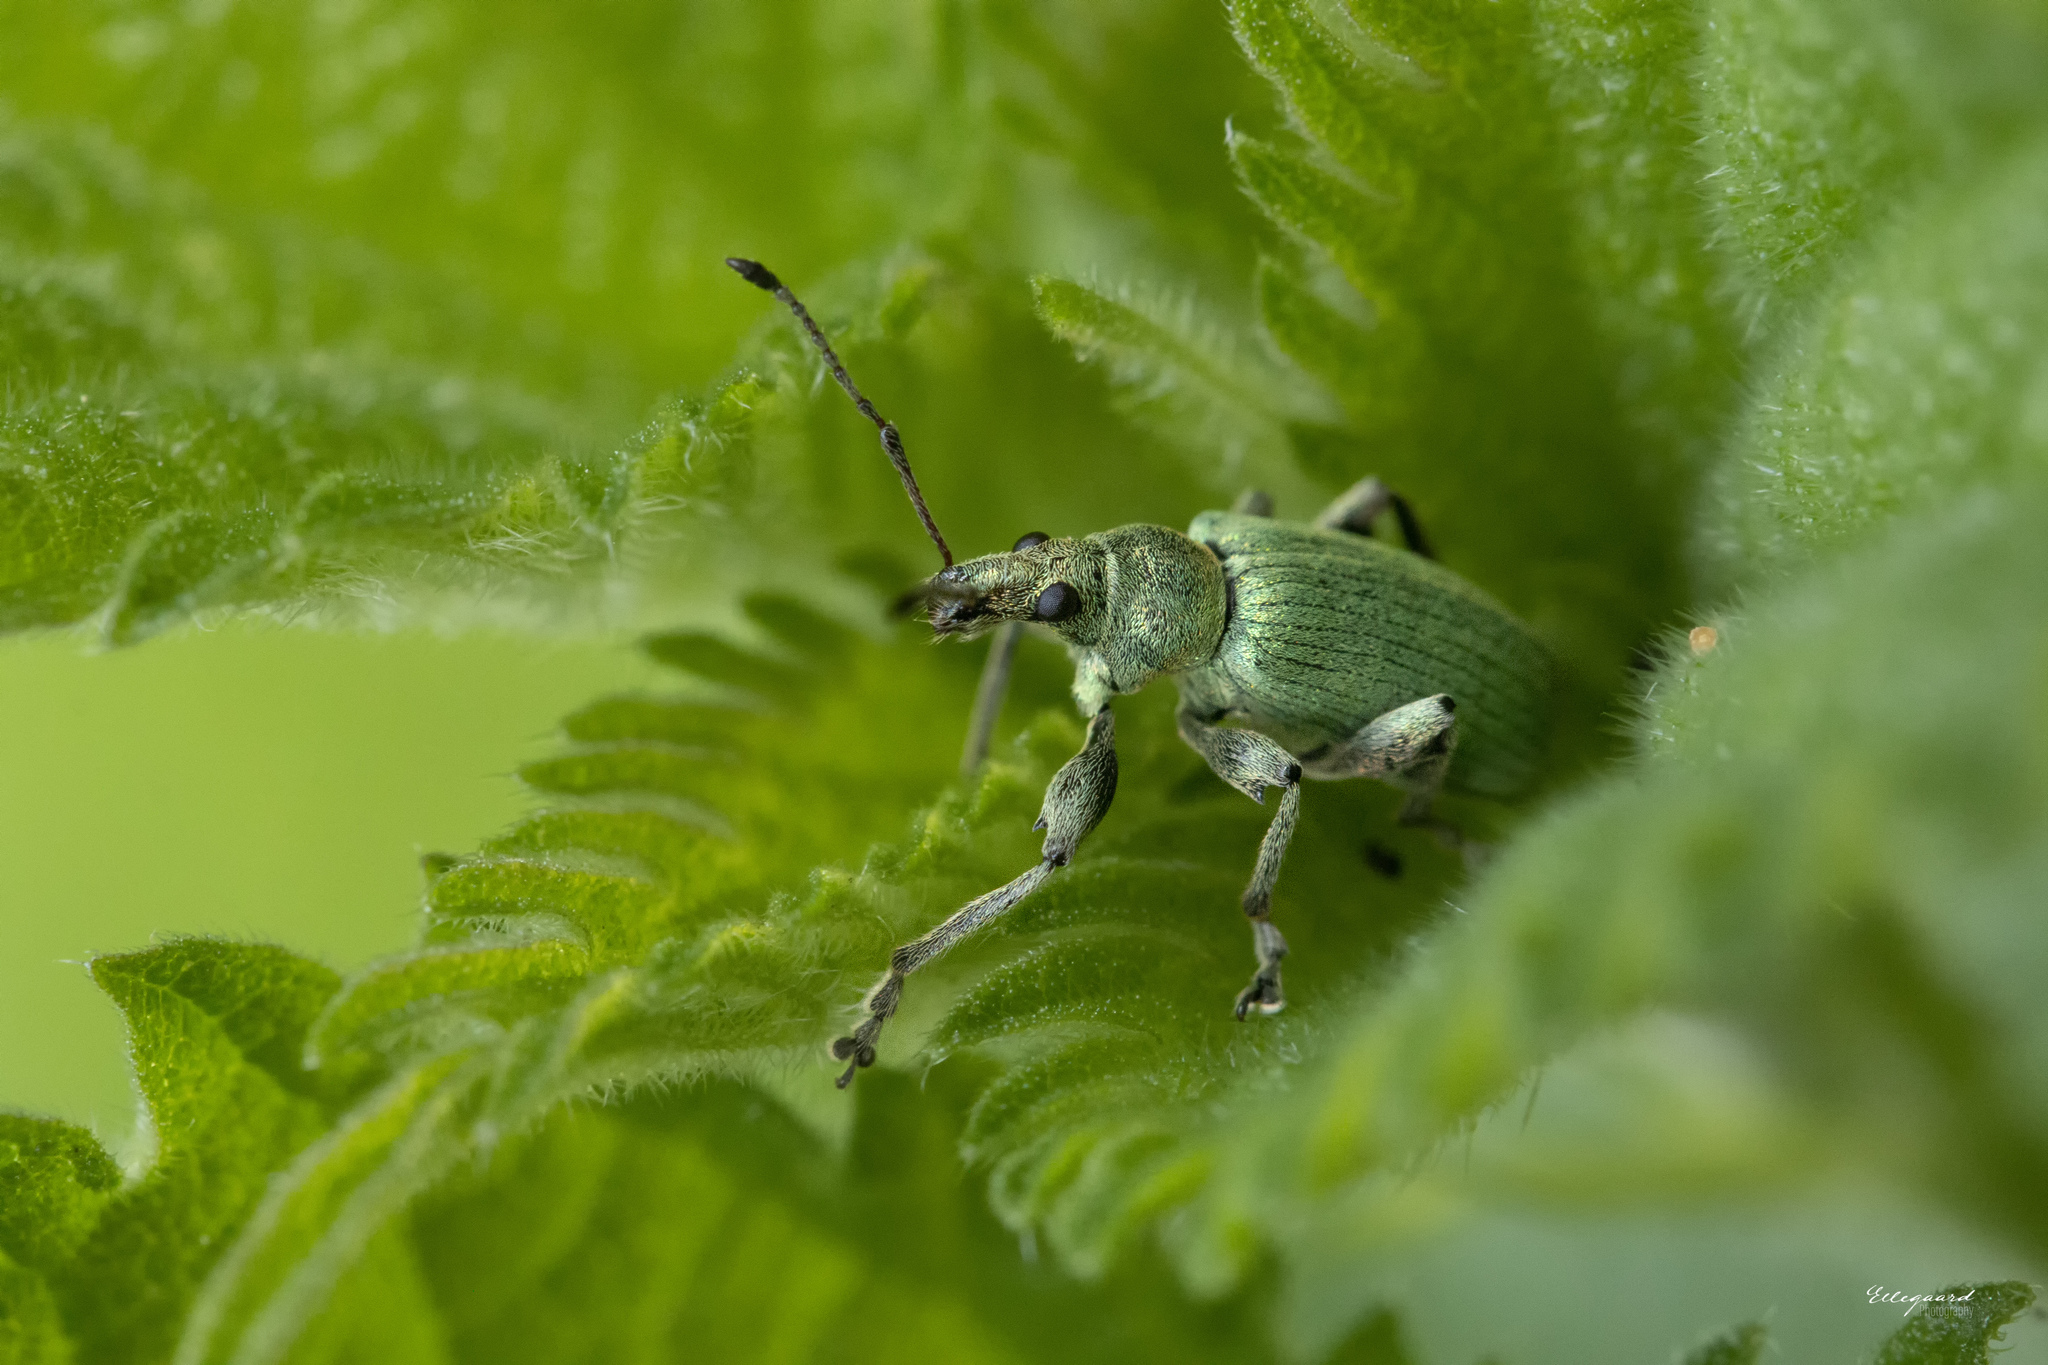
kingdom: Animalia
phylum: Arthropoda
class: Insecta
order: Coleoptera
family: Curculionidae
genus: Phyllobius
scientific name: Phyllobius pomaceus
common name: Green nettle weevil
